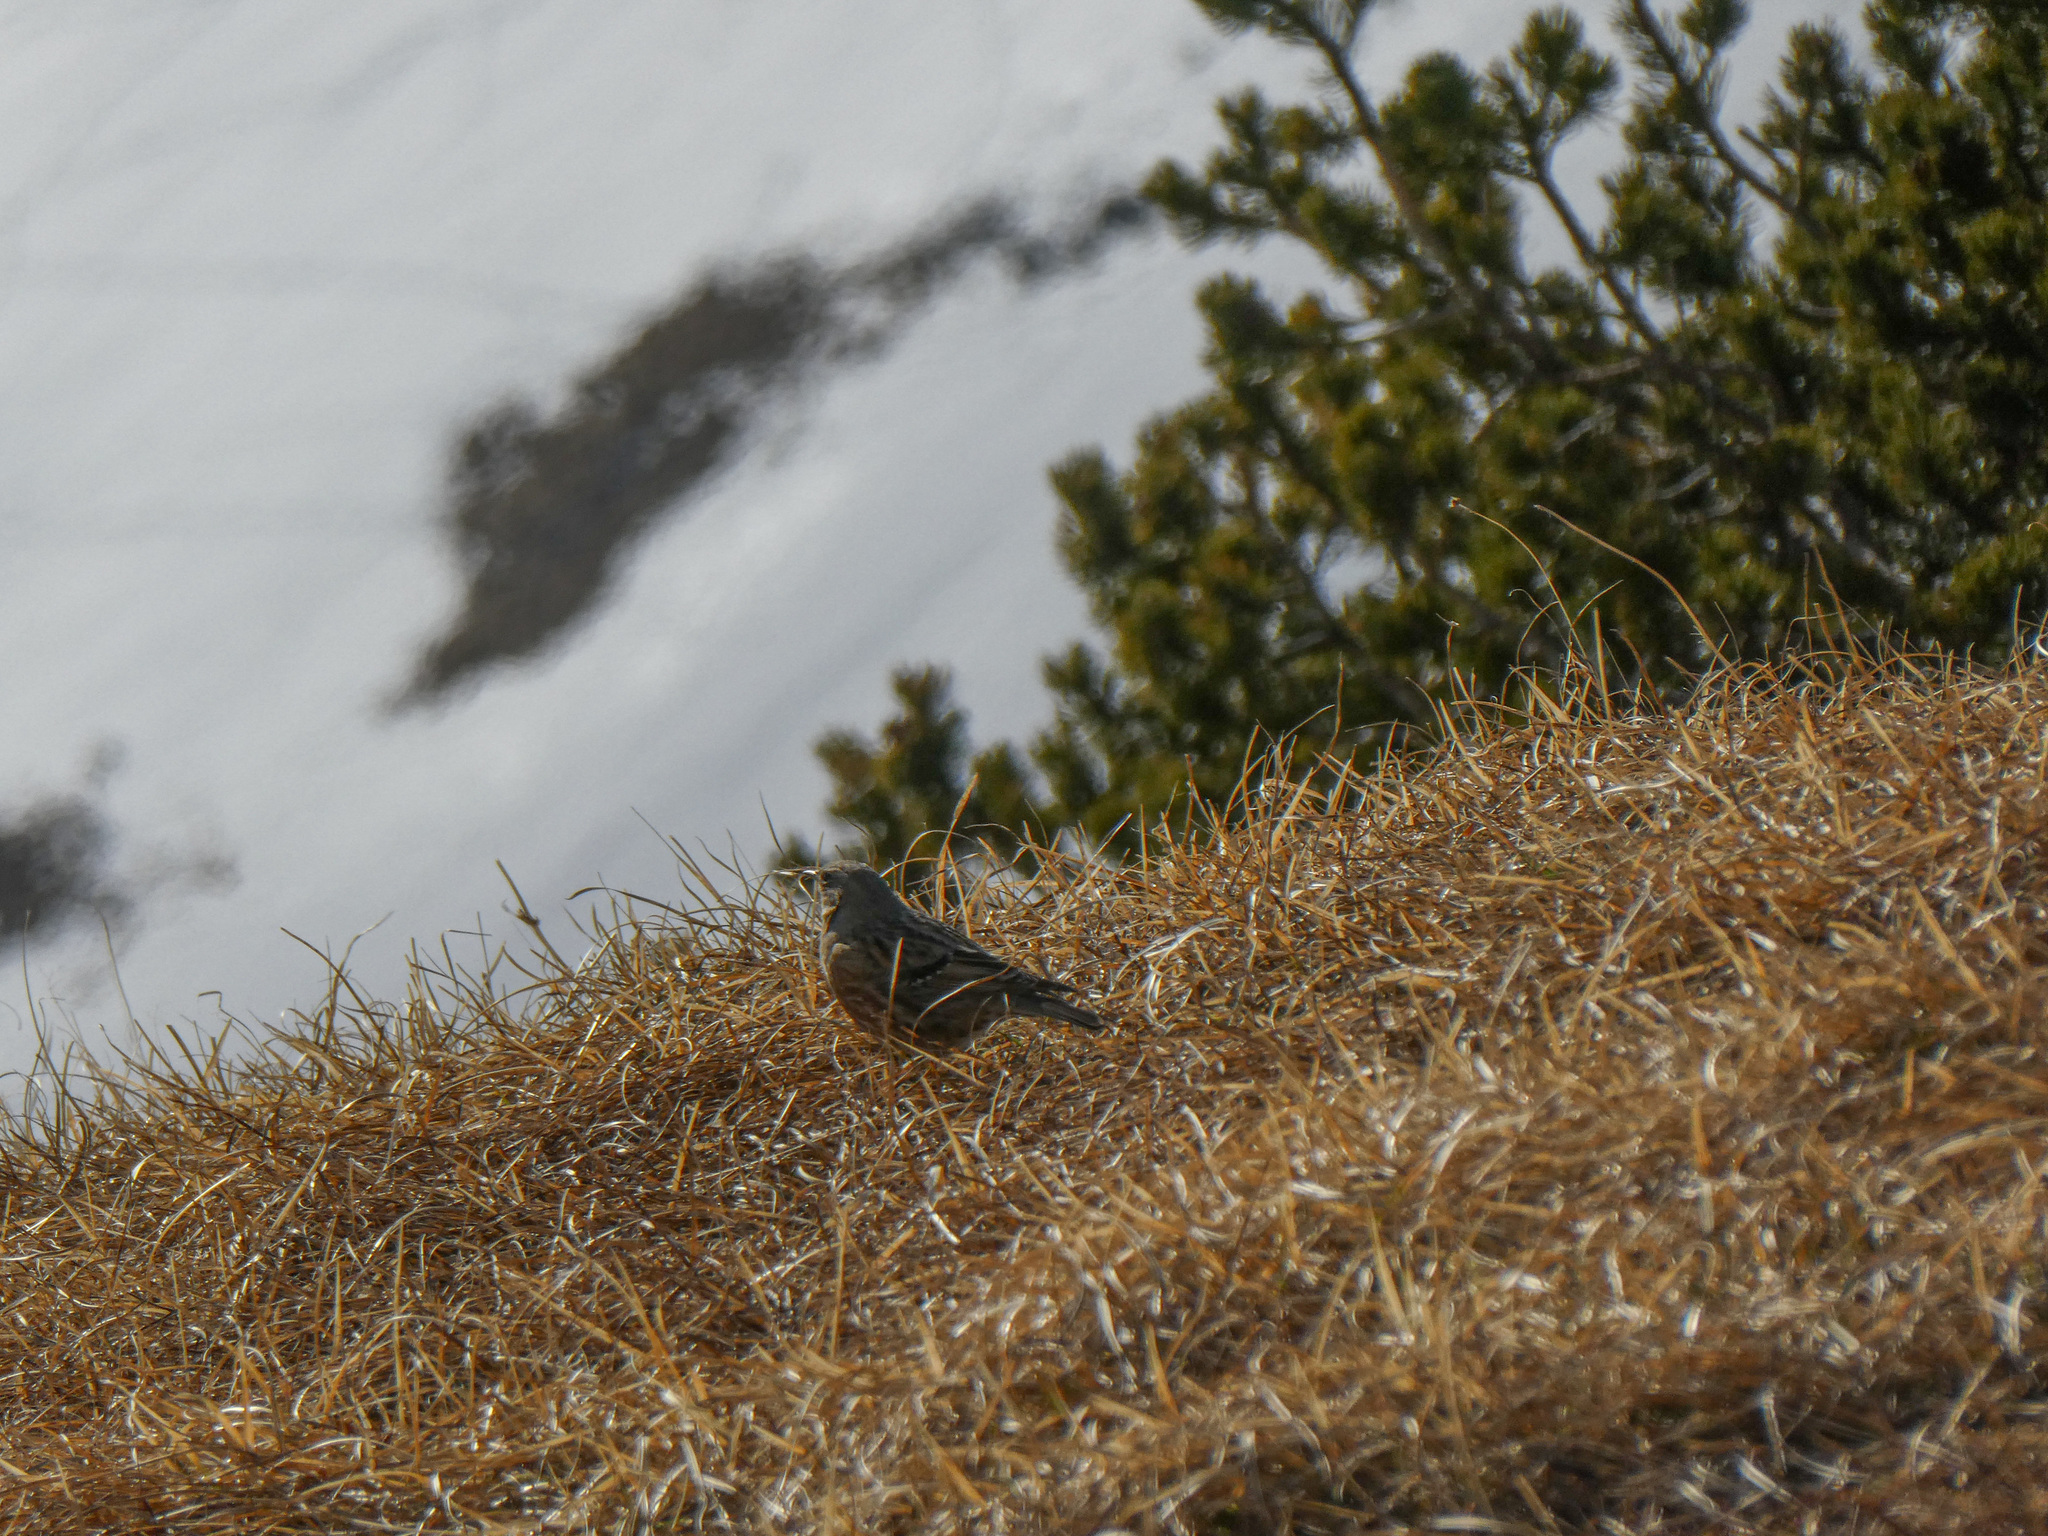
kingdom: Animalia
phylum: Chordata
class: Aves
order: Passeriformes
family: Prunellidae
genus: Prunella
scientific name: Prunella collaris
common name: Alpine accentor
